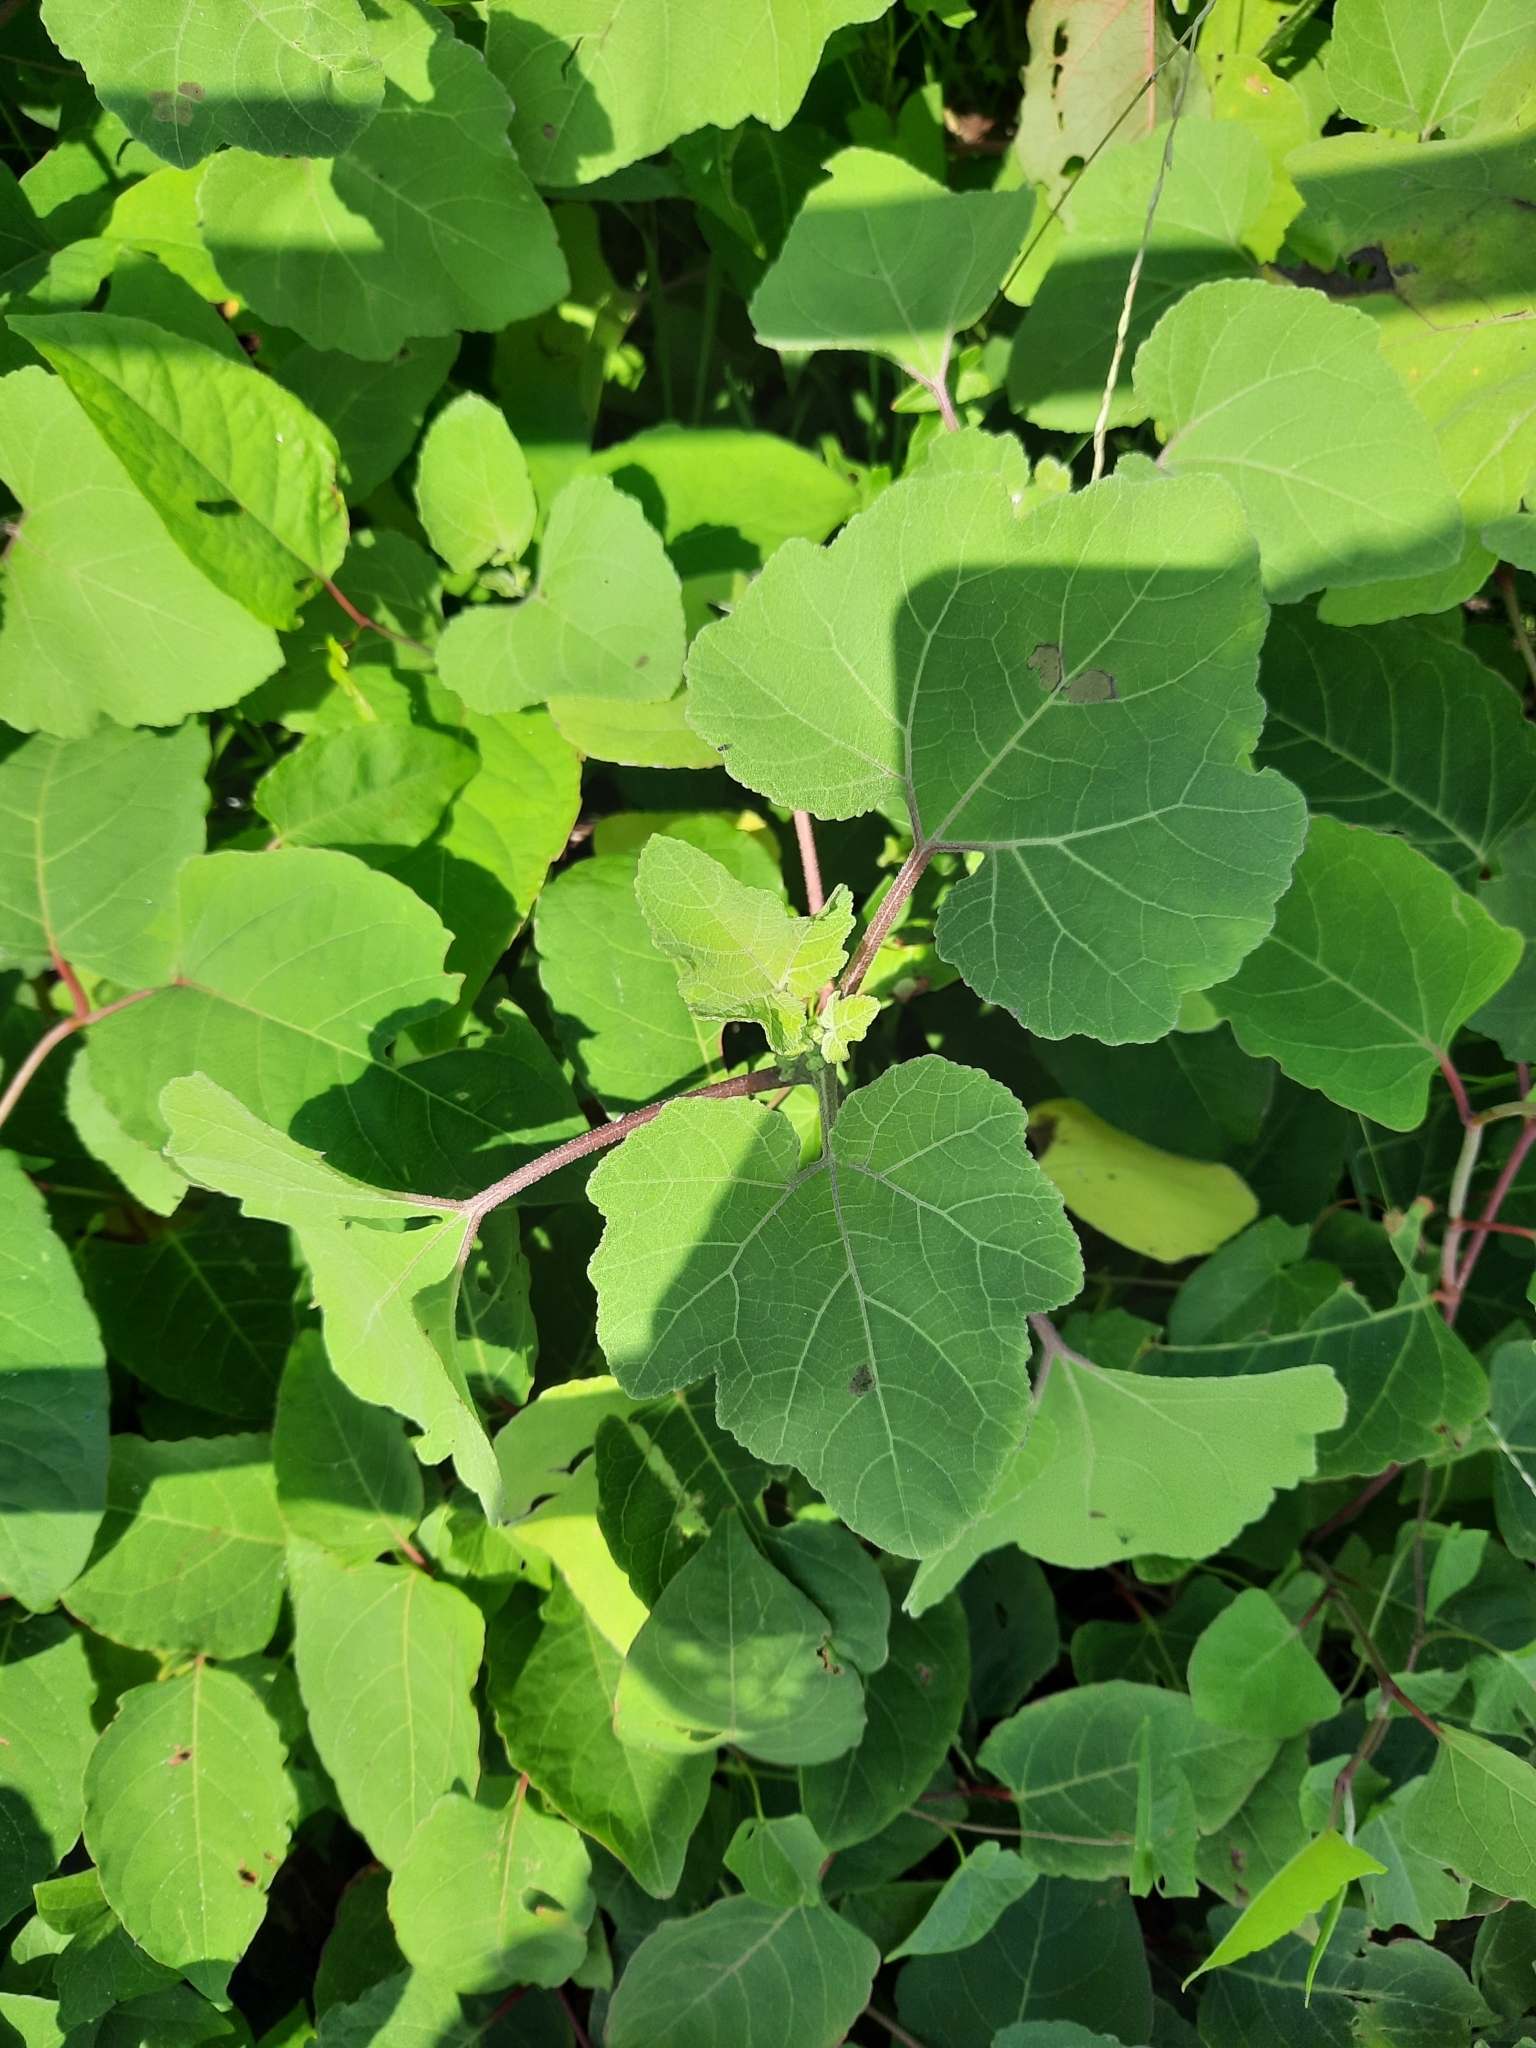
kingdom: Plantae
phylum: Tracheophyta
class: Magnoliopsida
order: Asterales
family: Asteraceae
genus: Xanthium
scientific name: Xanthium strumarium
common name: Rough cocklebur
